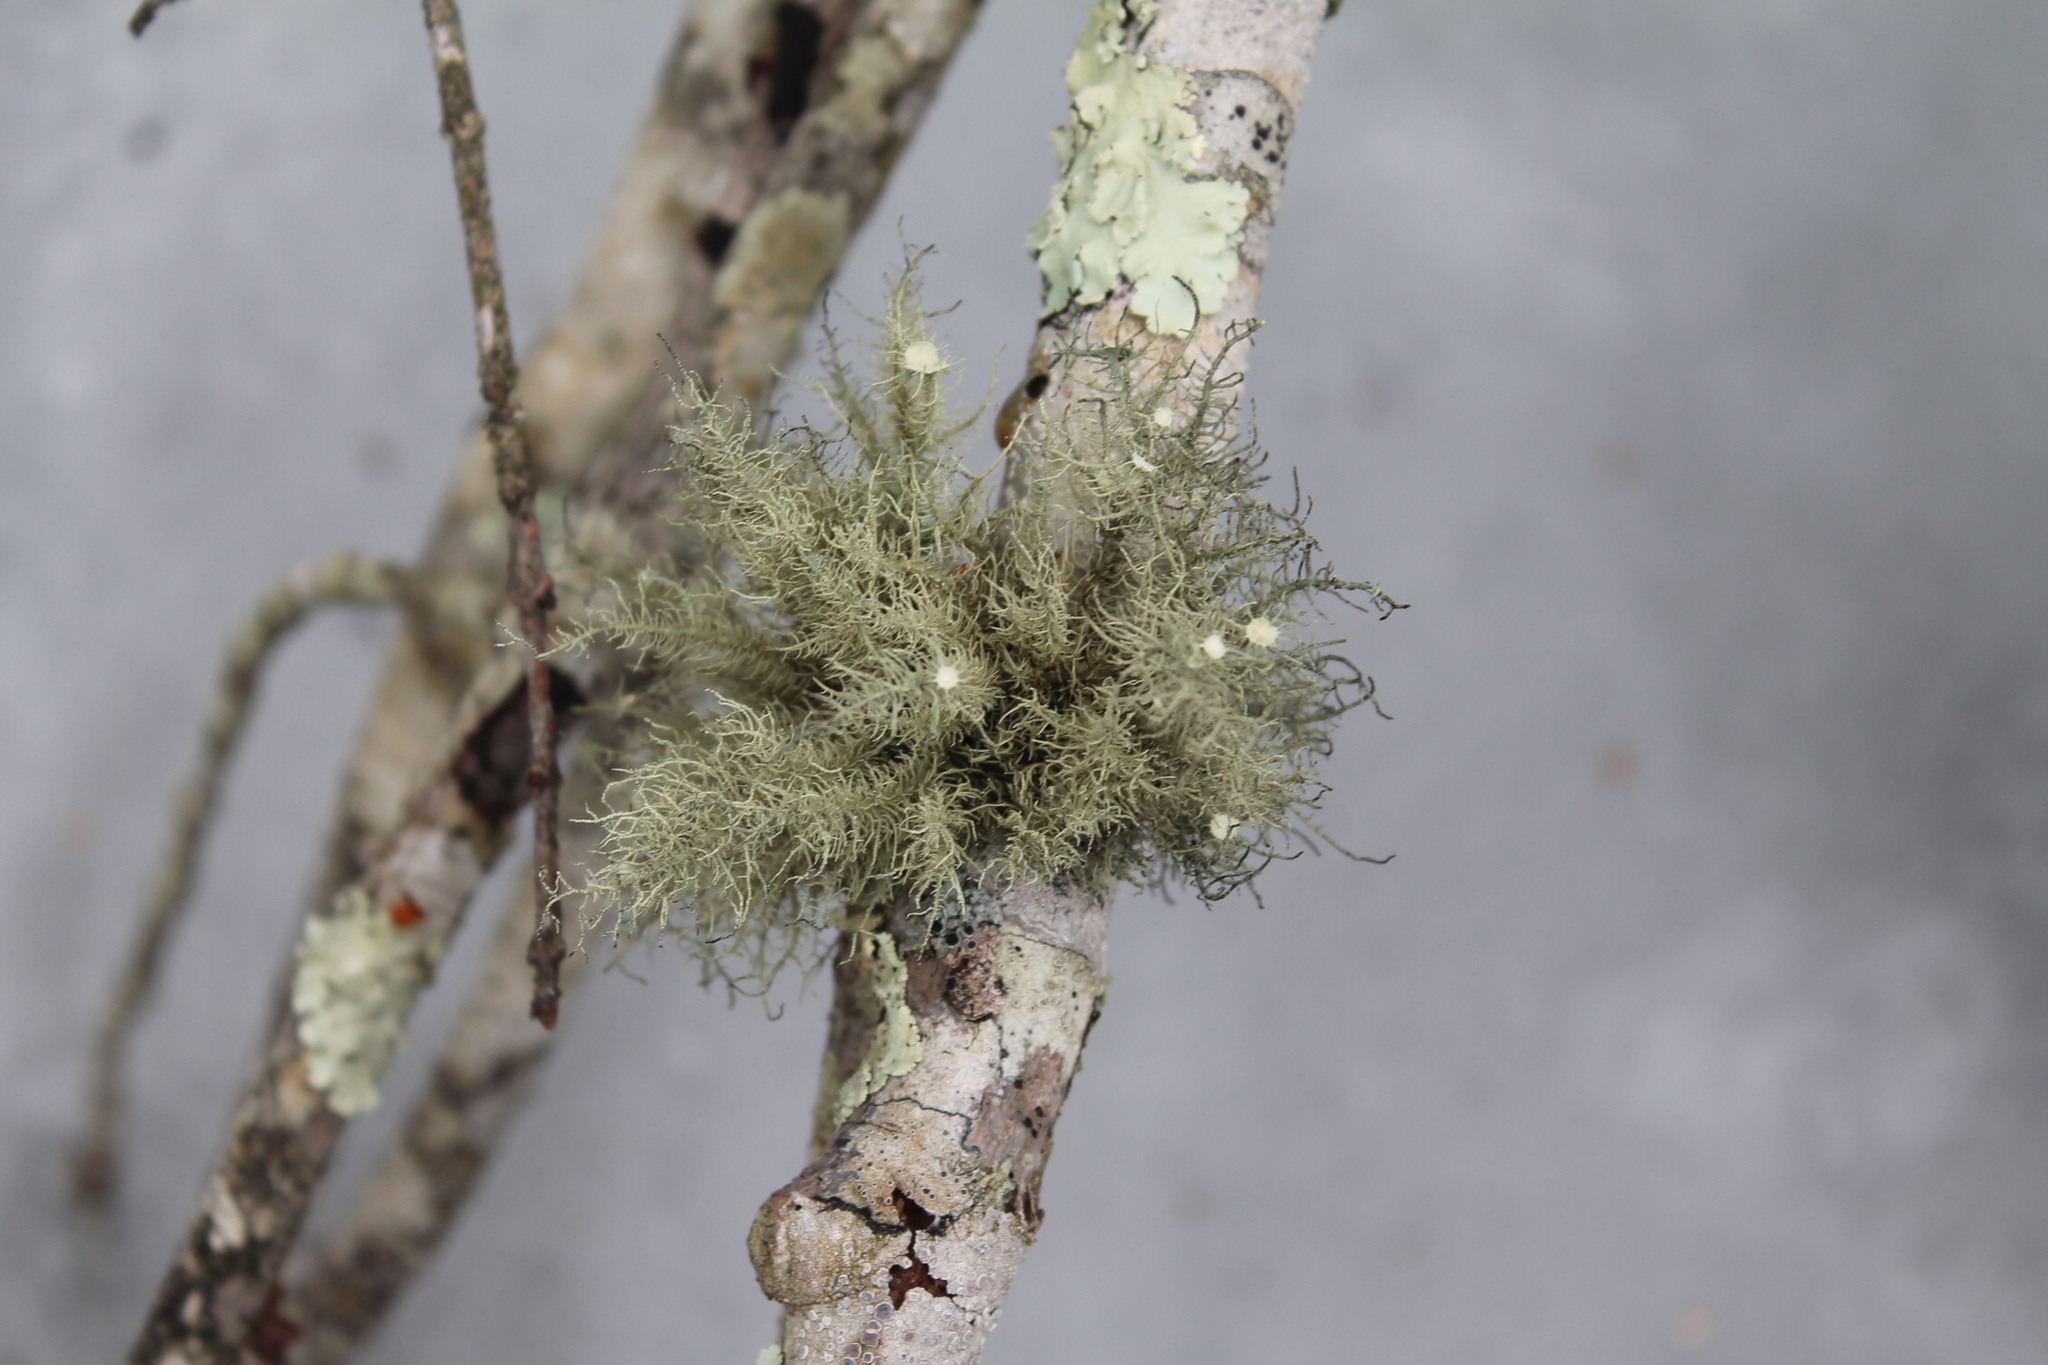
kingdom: Fungi
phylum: Ascomycota
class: Lecanoromycetes
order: Lecanorales
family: Parmeliaceae
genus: Usnea
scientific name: Usnea strigosa
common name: Bushy beard lichen
